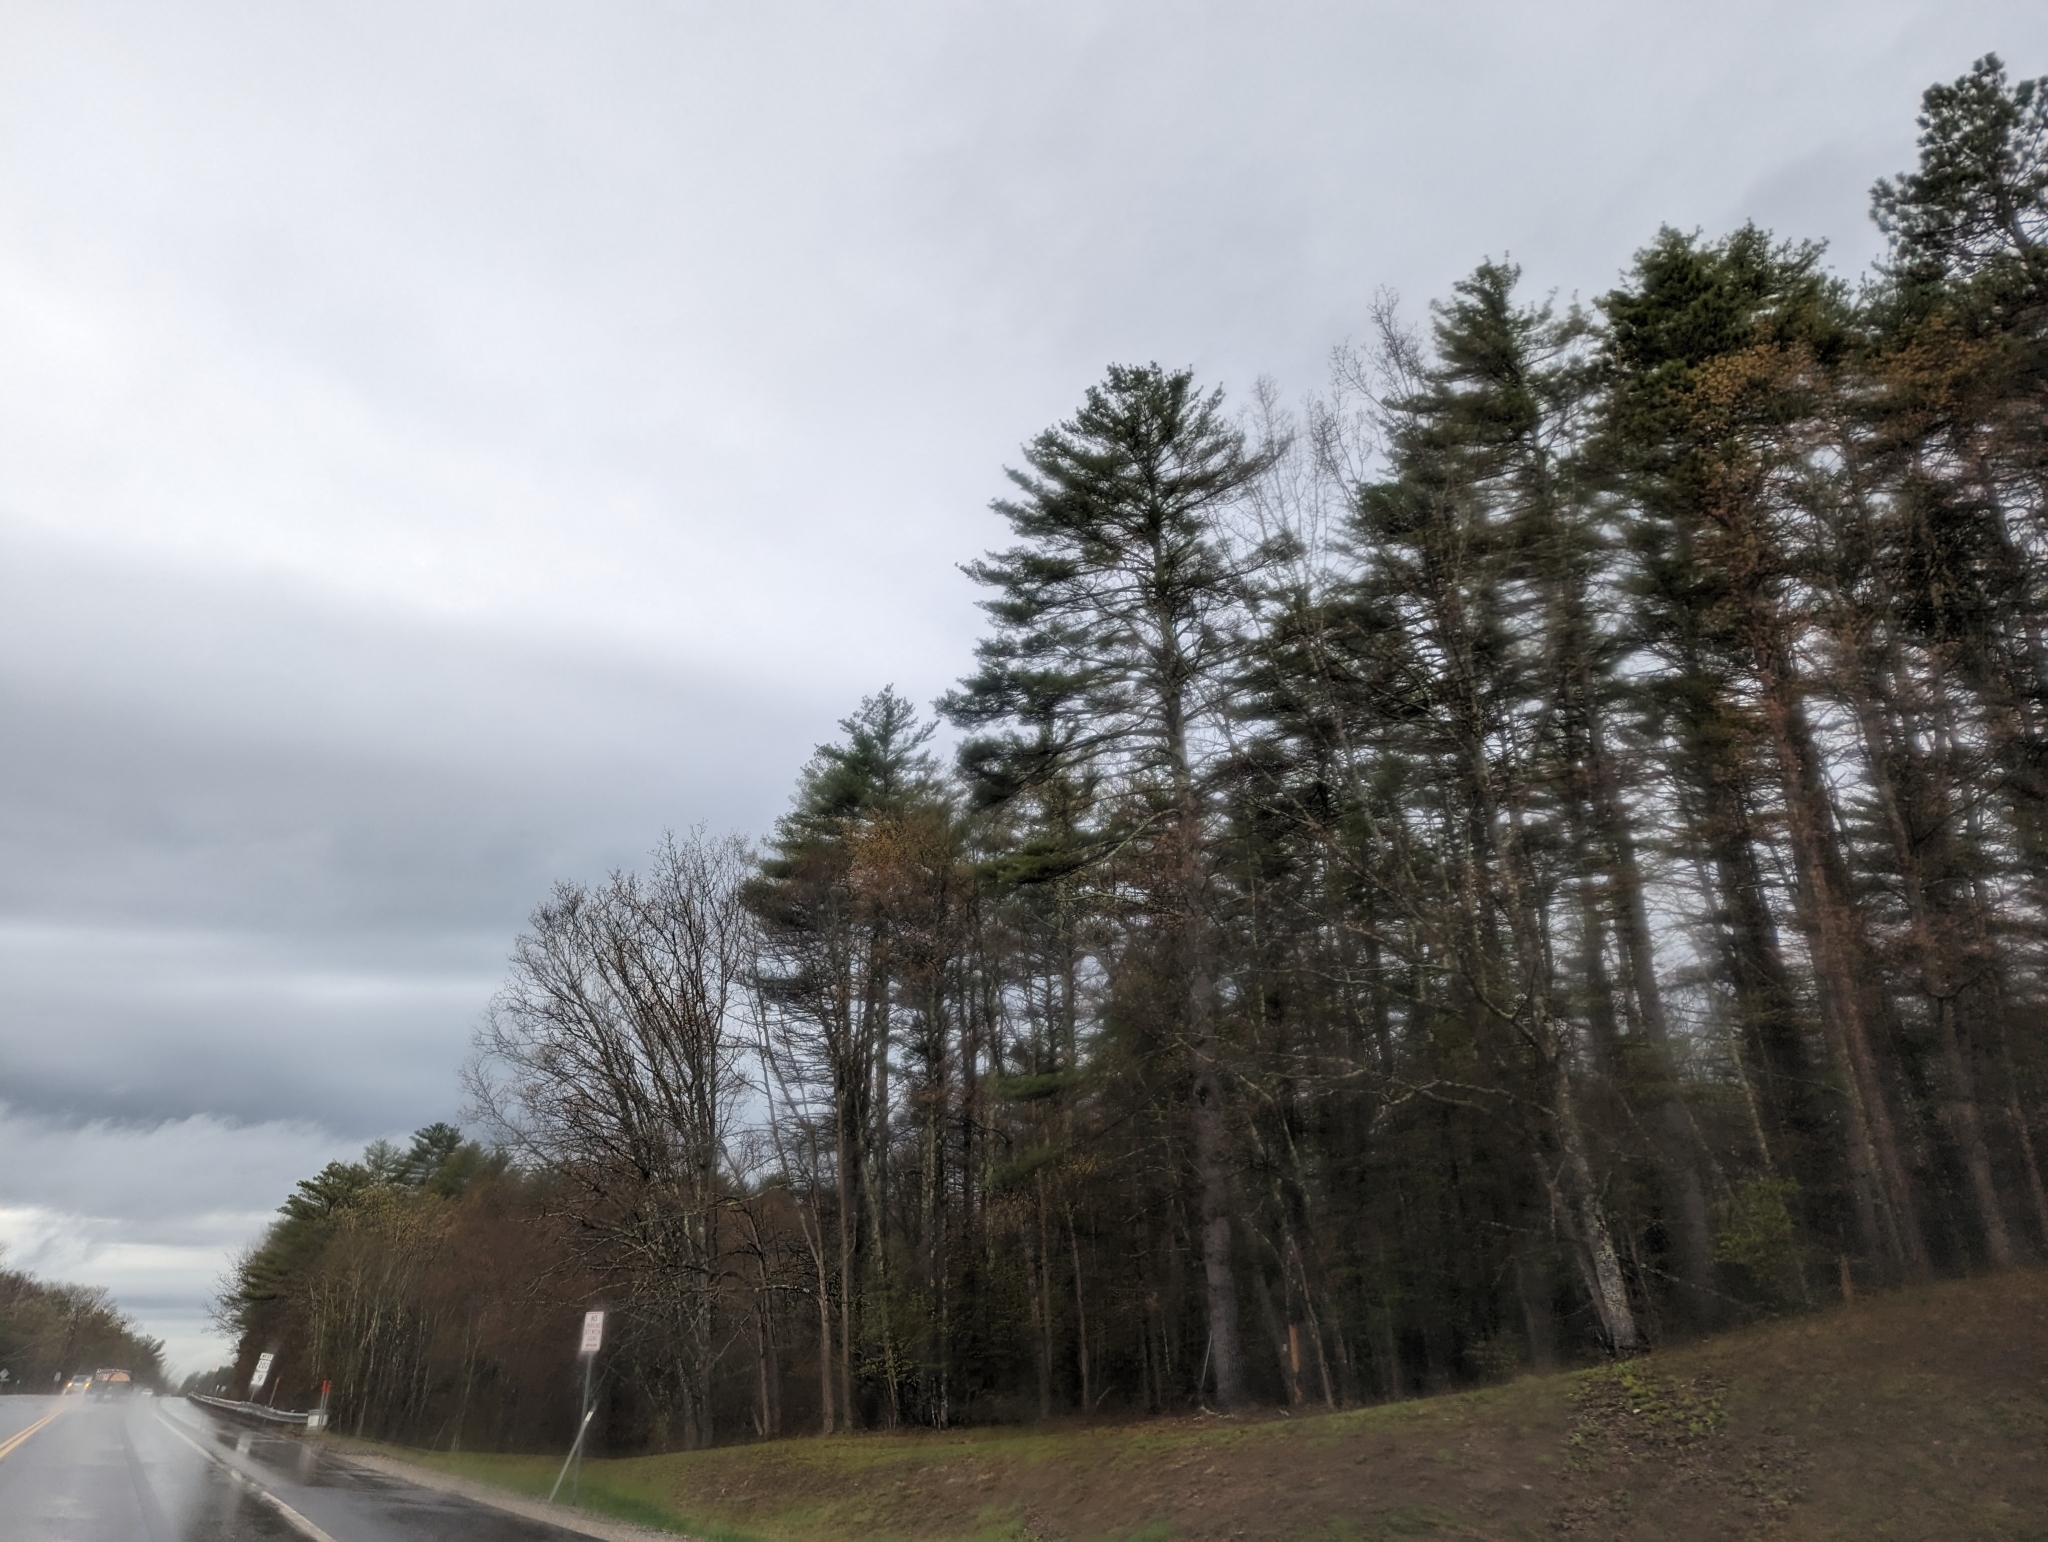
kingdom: Plantae
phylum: Tracheophyta
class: Pinopsida
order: Pinales
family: Pinaceae
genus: Pinus
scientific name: Pinus strobus
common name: Weymouth pine
